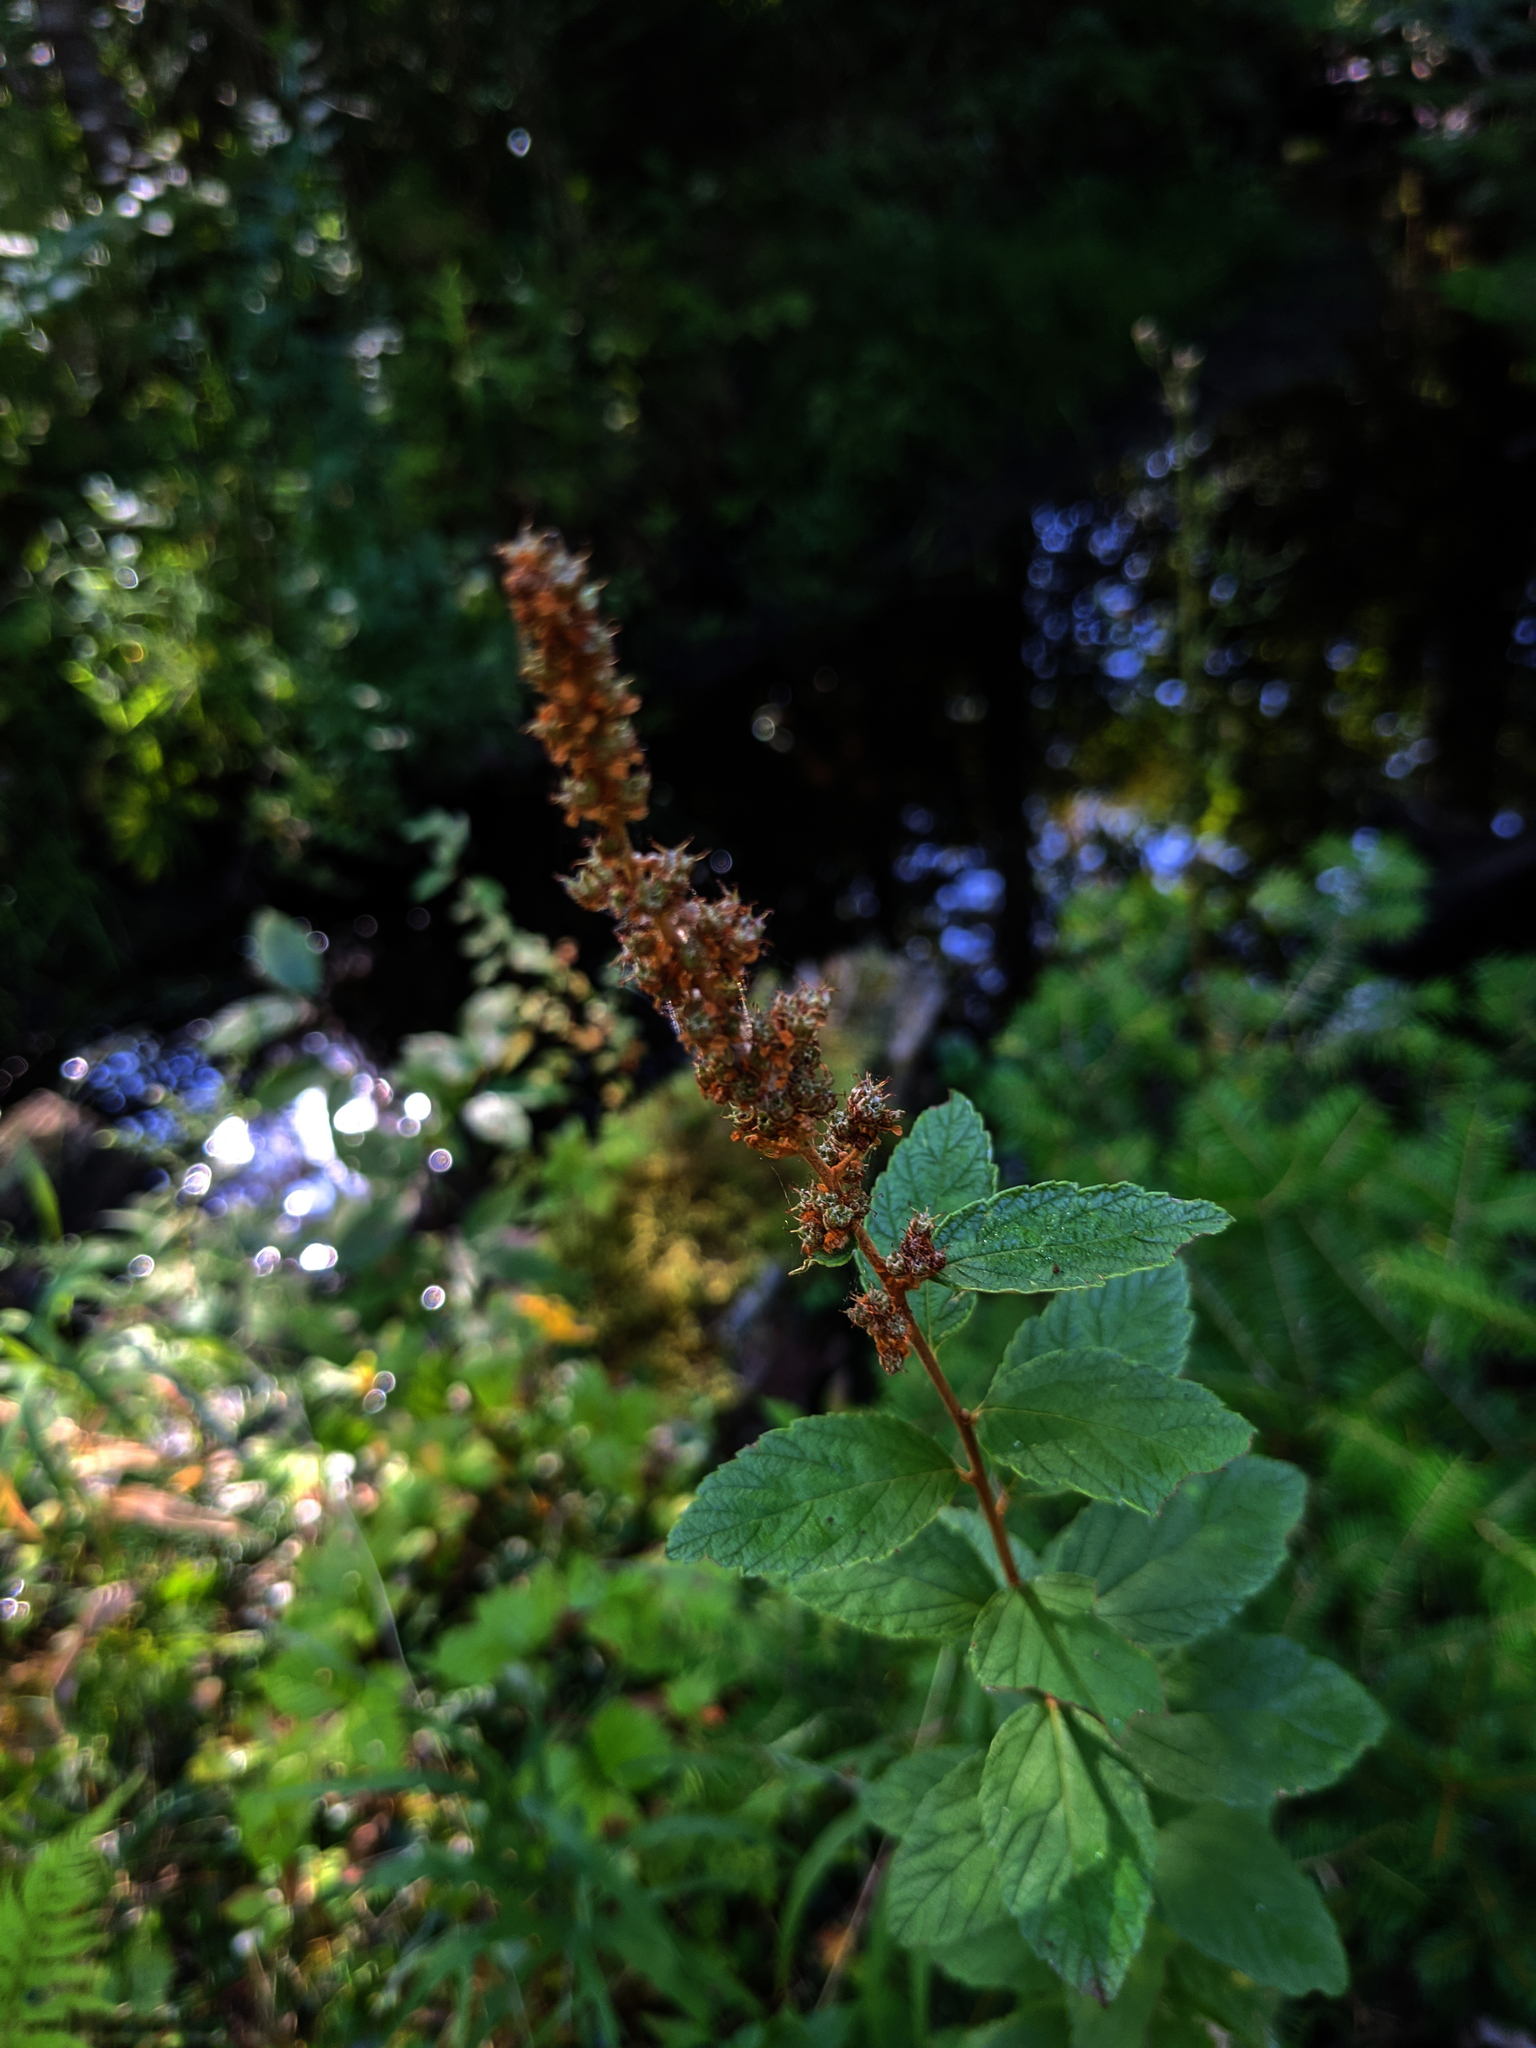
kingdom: Plantae
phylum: Tracheophyta
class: Magnoliopsida
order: Rosales
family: Rosaceae
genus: Spiraea
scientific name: Spiraea tomentosa
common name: Hardhack
